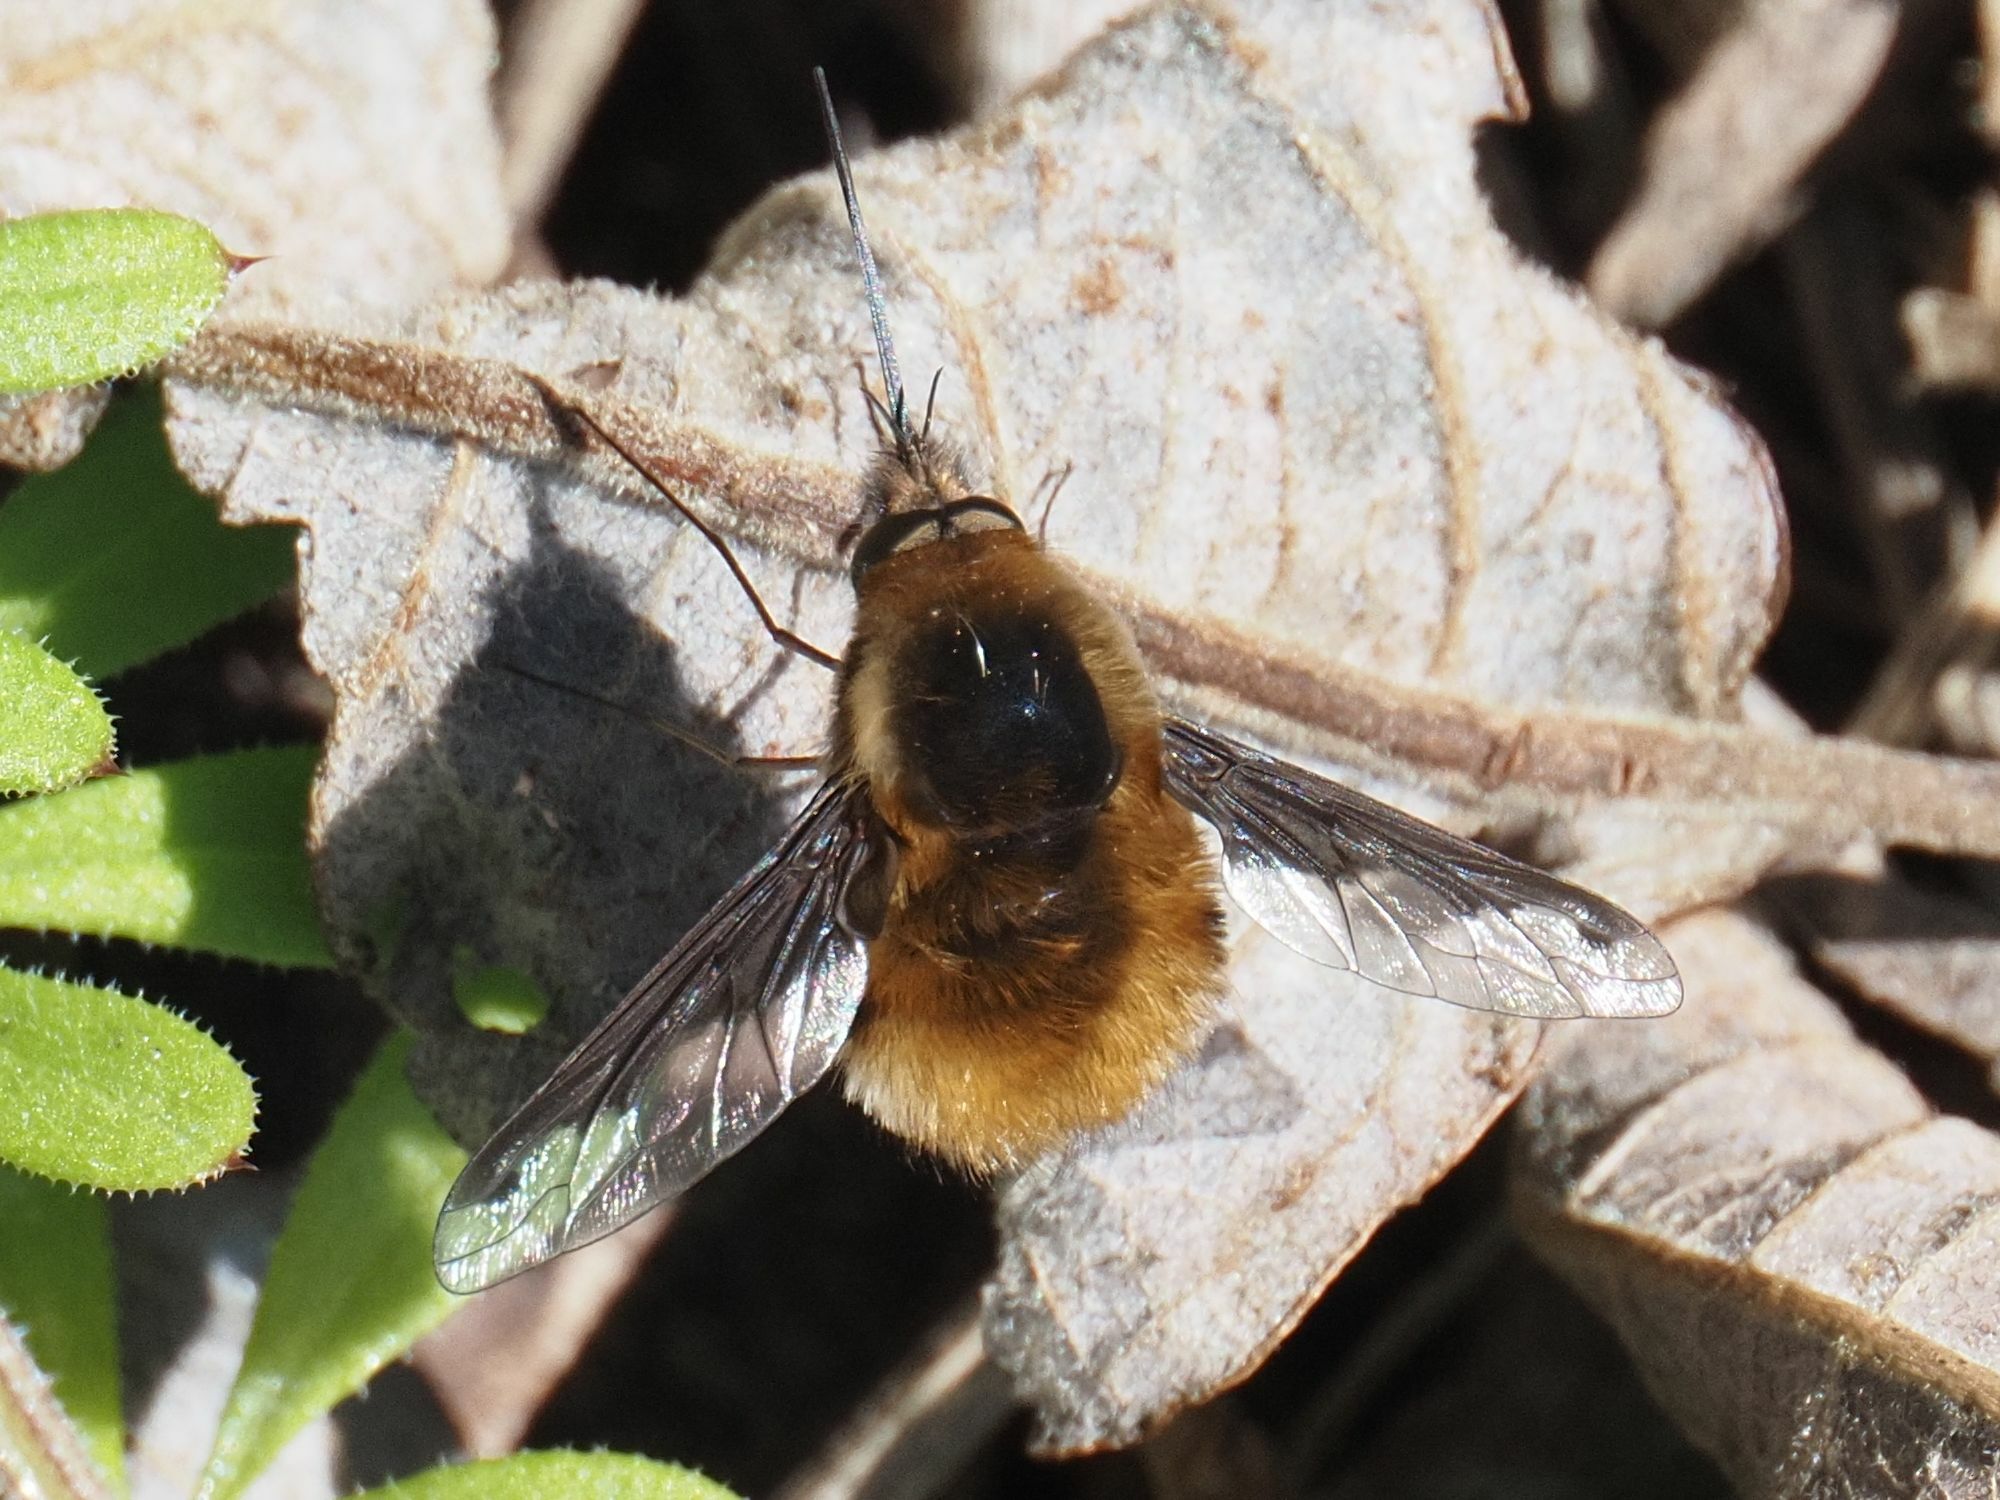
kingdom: Animalia
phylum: Arthropoda
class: Insecta
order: Diptera
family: Bombyliidae
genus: Bombylius
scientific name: Bombylius major
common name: Bee fly
